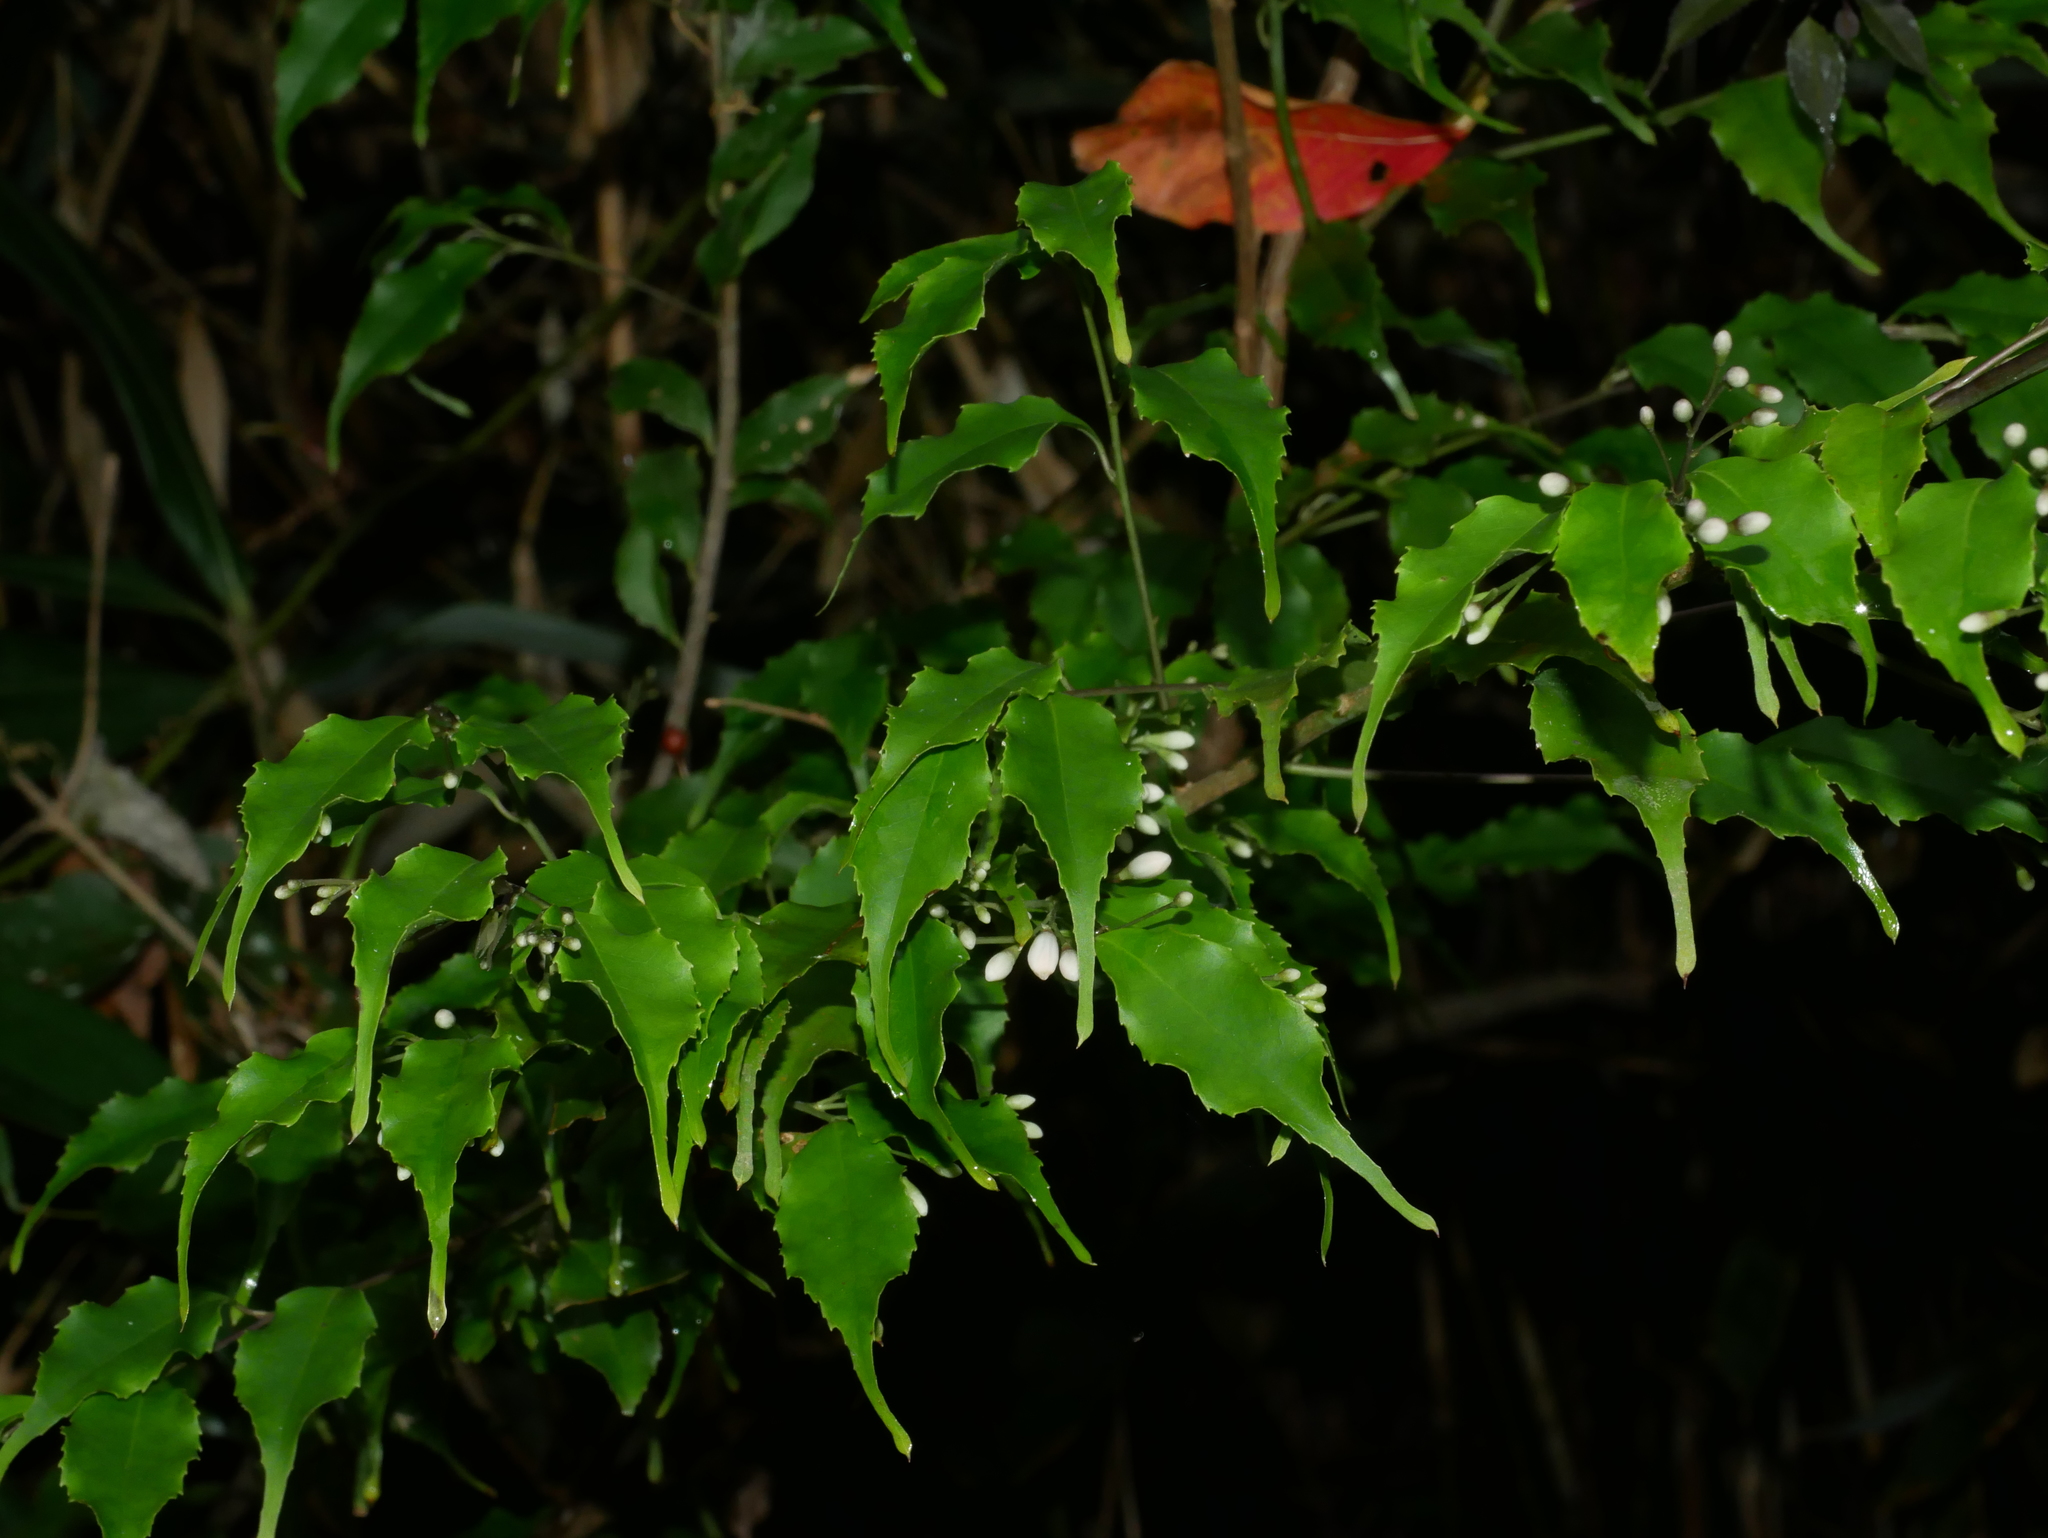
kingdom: Plantae
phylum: Tracheophyta
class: Magnoliopsida
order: Ericales
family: Symplocaceae
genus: Symplocos
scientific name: Symplocos sumuntia
